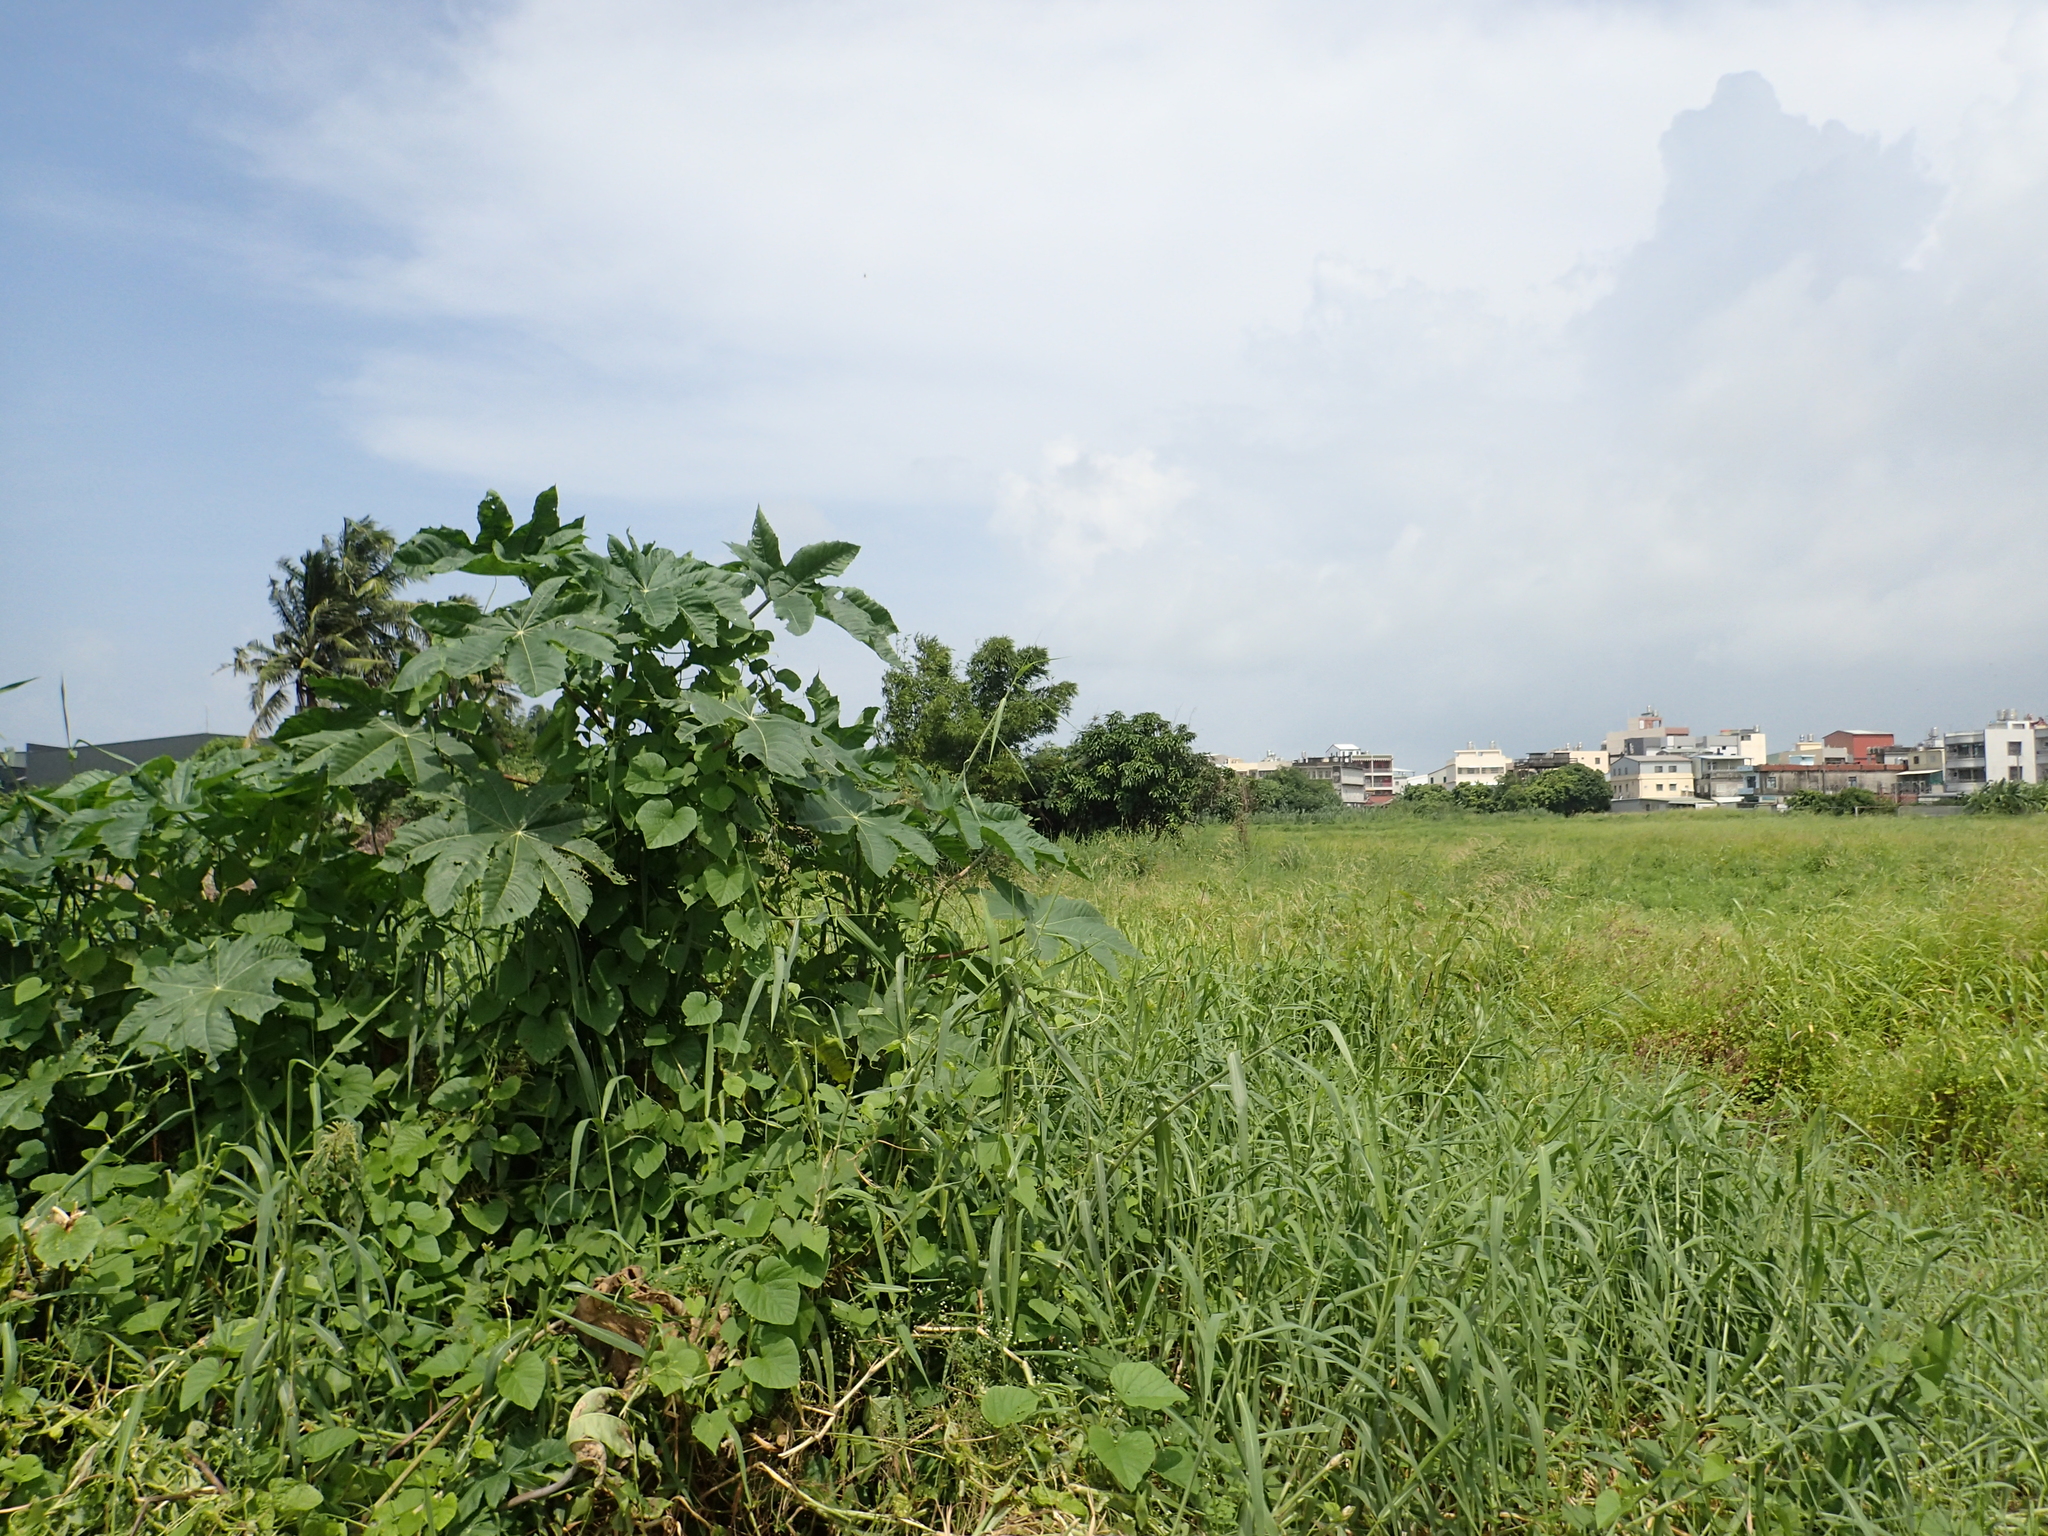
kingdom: Plantae
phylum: Tracheophyta
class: Magnoliopsida
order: Malpighiales
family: Euphorbiaceae
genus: Ricinus
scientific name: Ricinus communis
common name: Castor-oil-plant
